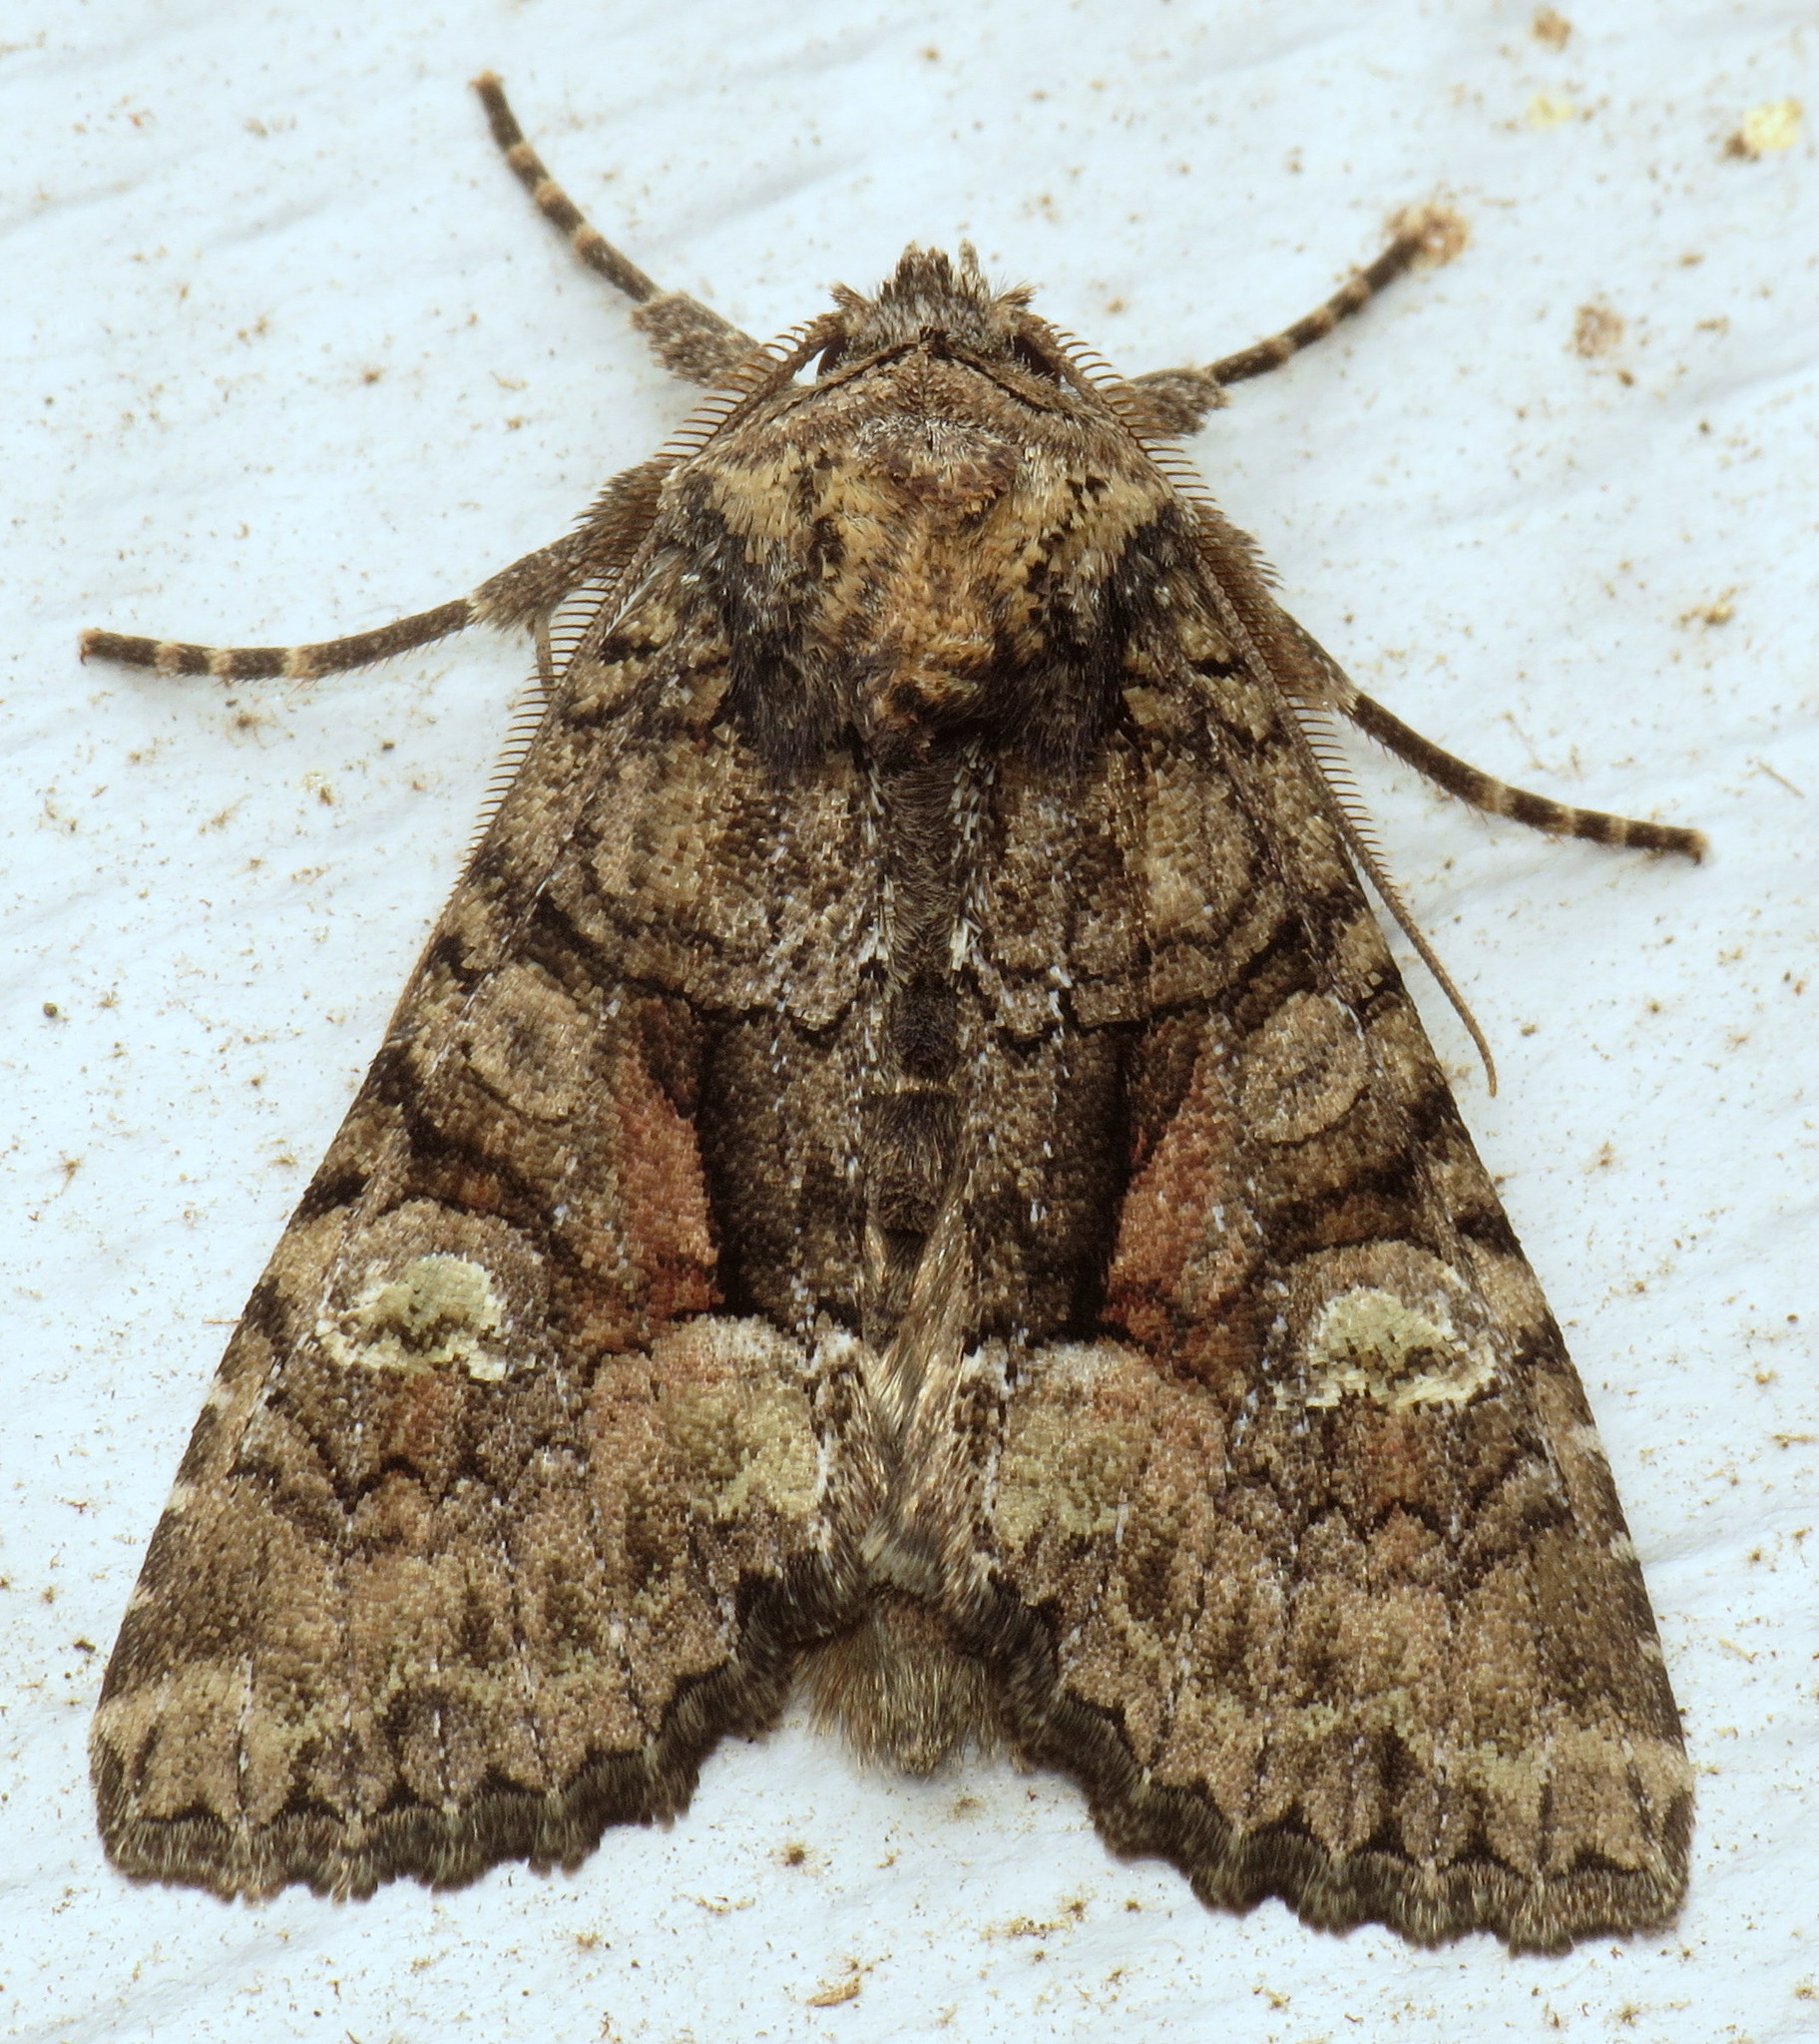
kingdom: Animalia
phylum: Arthropoda
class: Insecta
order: Lepidoptera
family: Noctuidae
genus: Fishia
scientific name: Fishia illocata
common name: Wandering brocade moth
